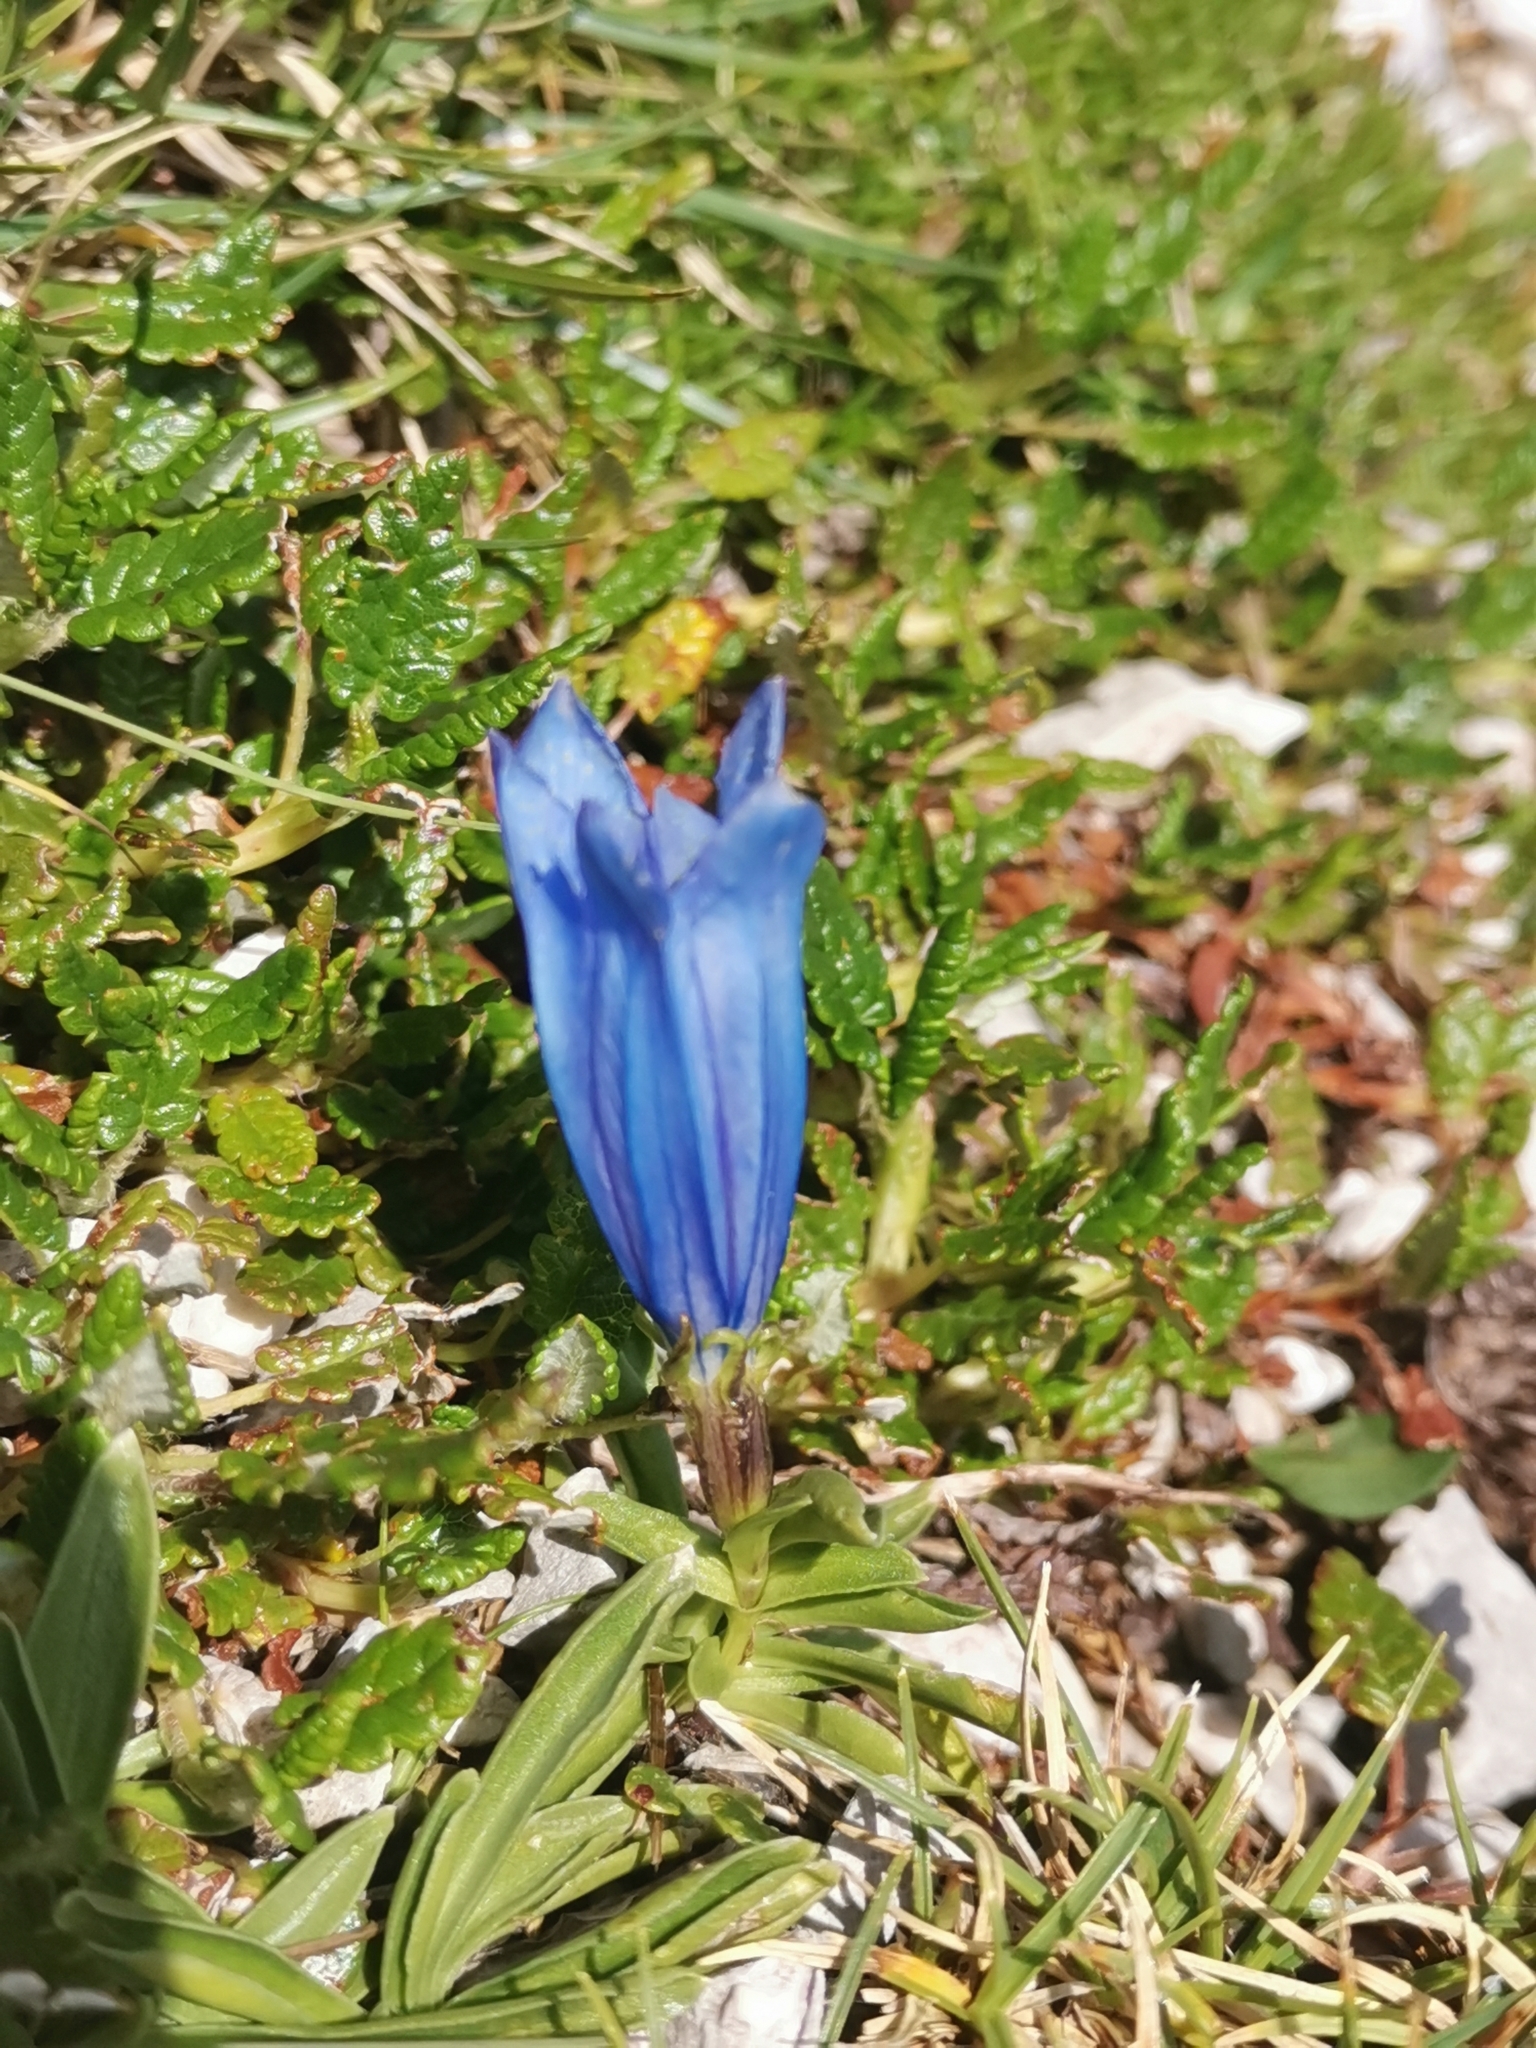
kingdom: Plantae
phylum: Tracheophyta
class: Magnoliopsida
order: Gentianales
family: Gentianaceae
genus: Gentiana
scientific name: Gentiana froelichii
